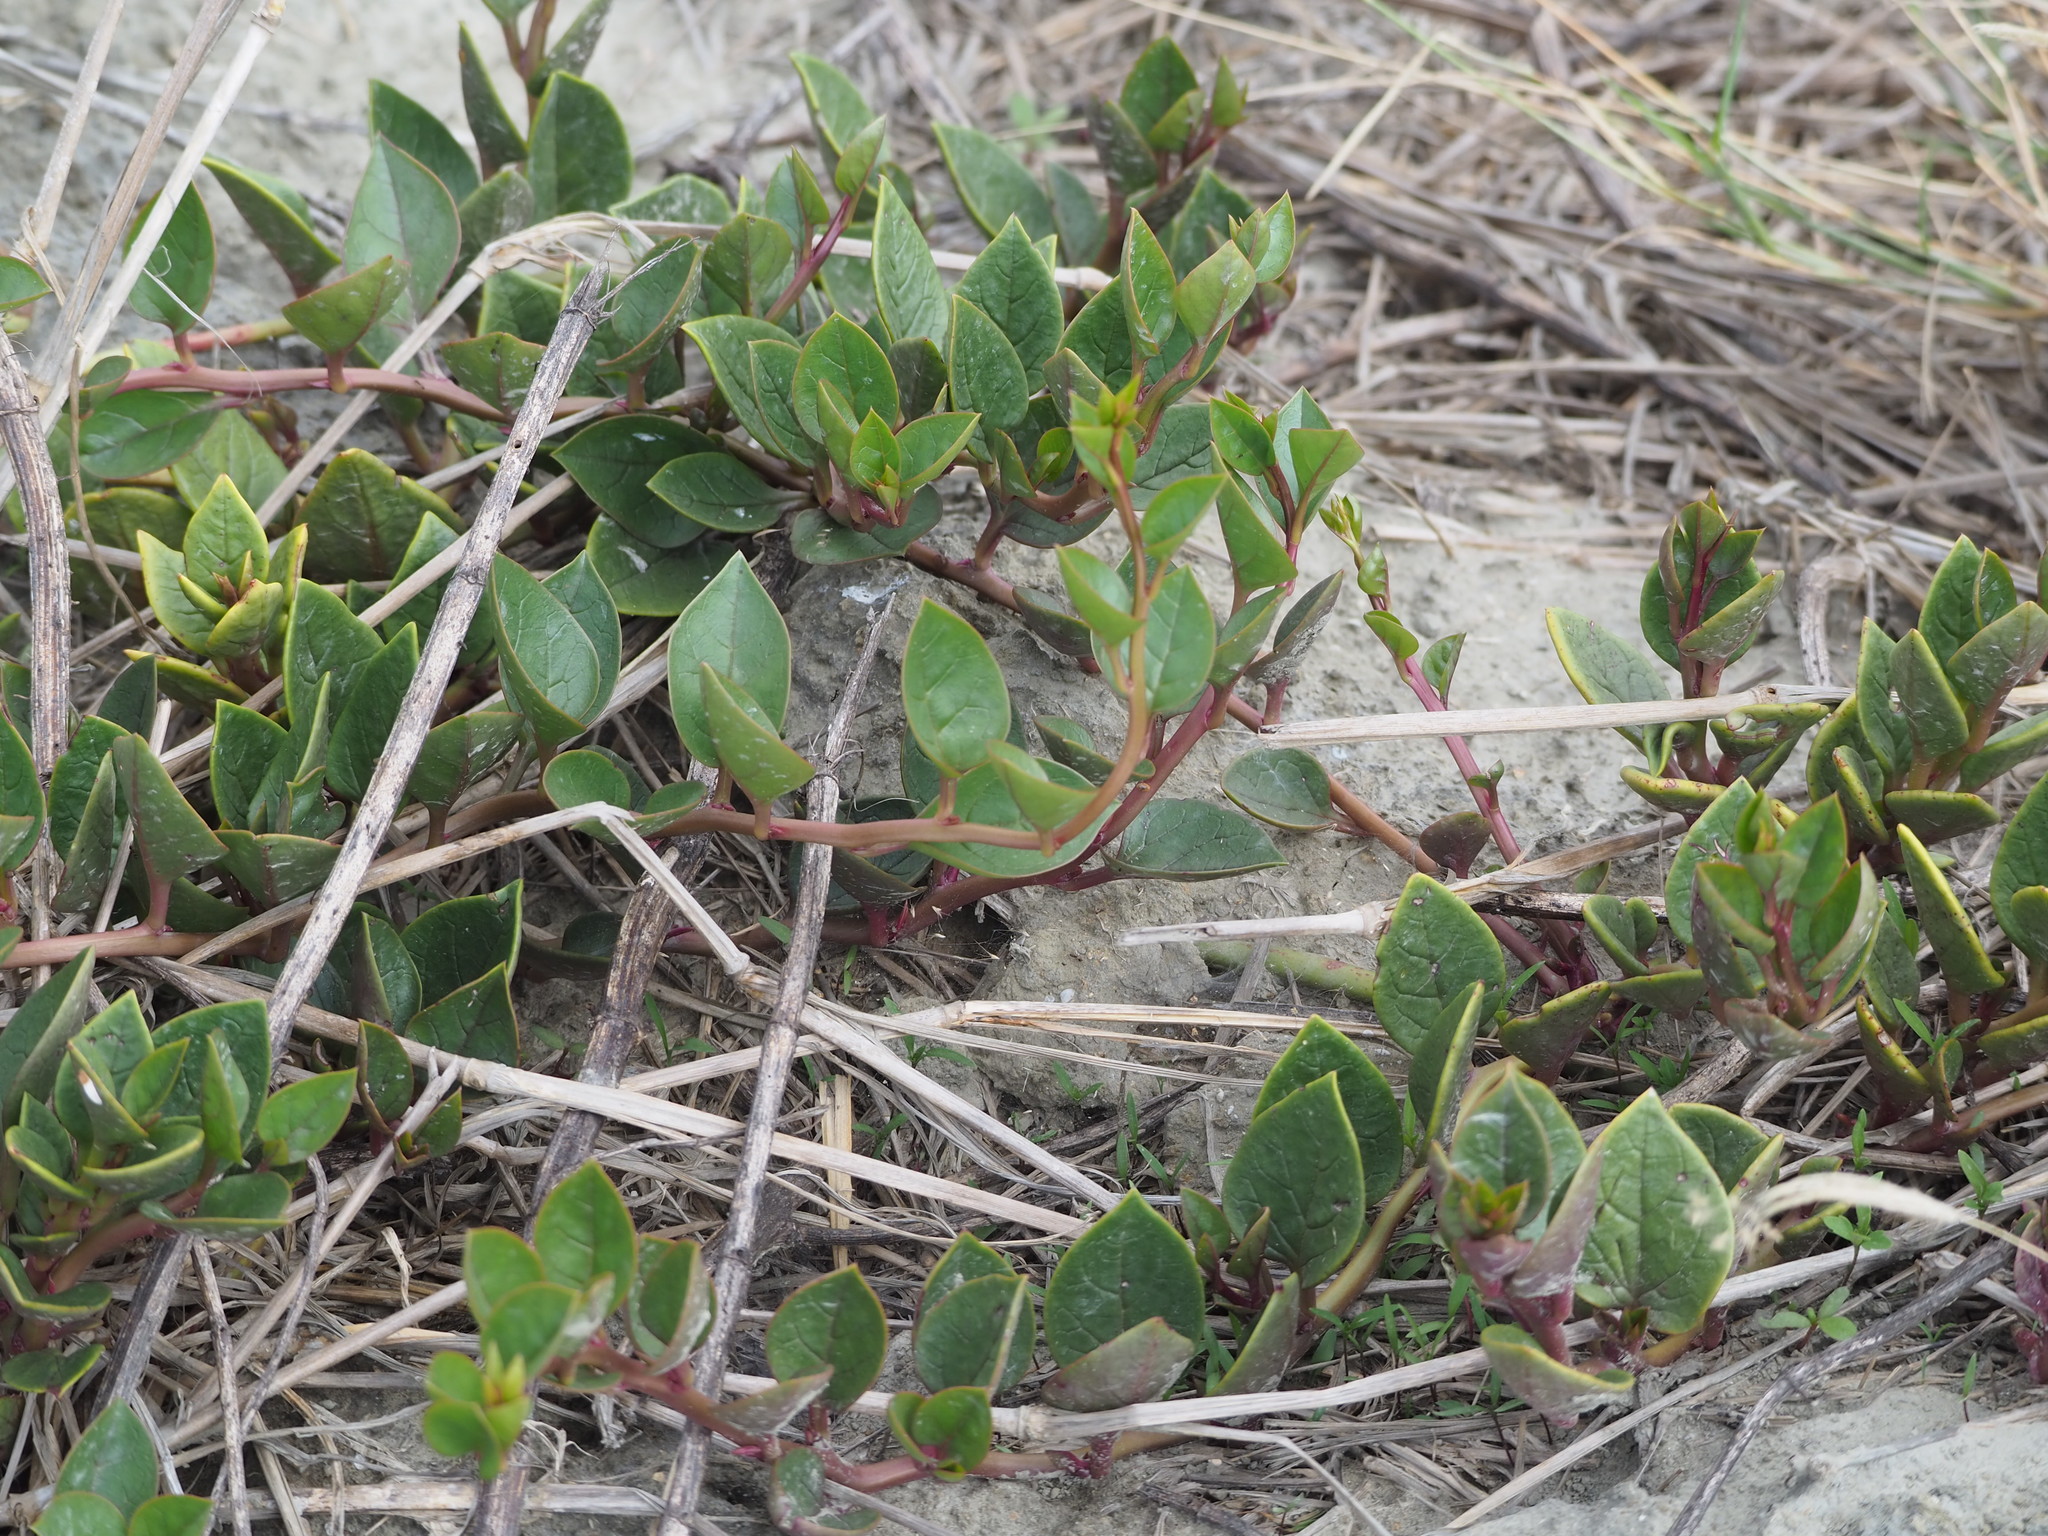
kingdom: Plantae
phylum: Tracheophyta
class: Magnoliopsida
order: Caryophyllales
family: Basellaceae
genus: Basella
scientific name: Basella alba
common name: Indian spinach
